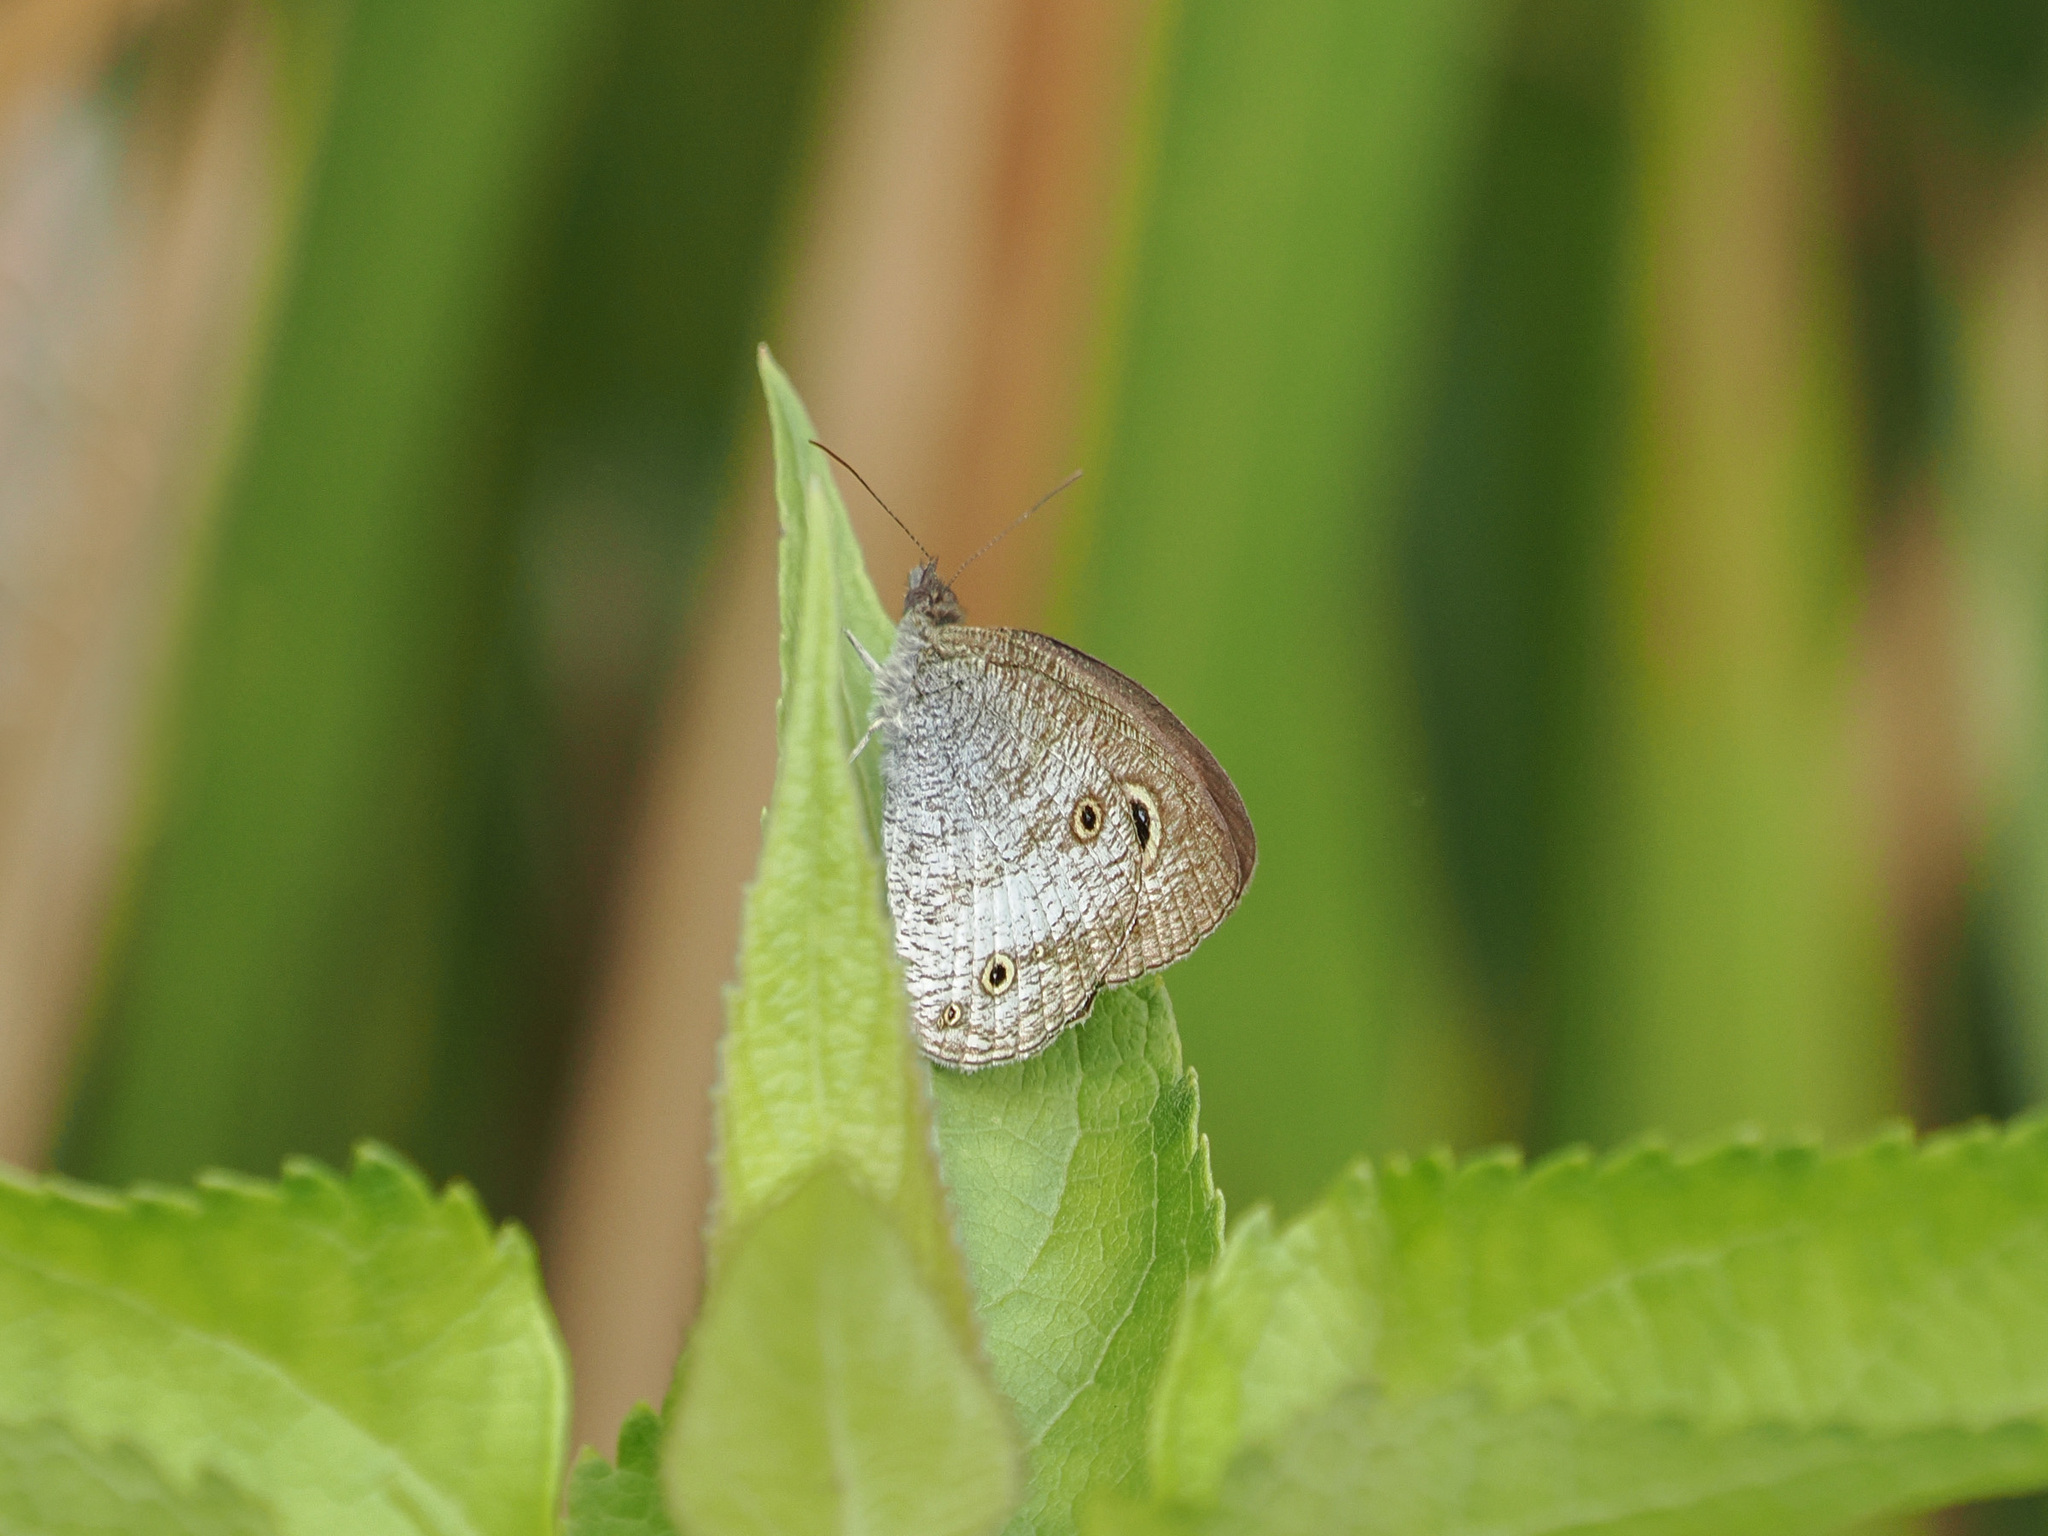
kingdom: Animalia
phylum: Arthropoda
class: Insecta
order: Lepidoptera
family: Nymphalidae
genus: Ypthima
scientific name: Ypthima pandocus
